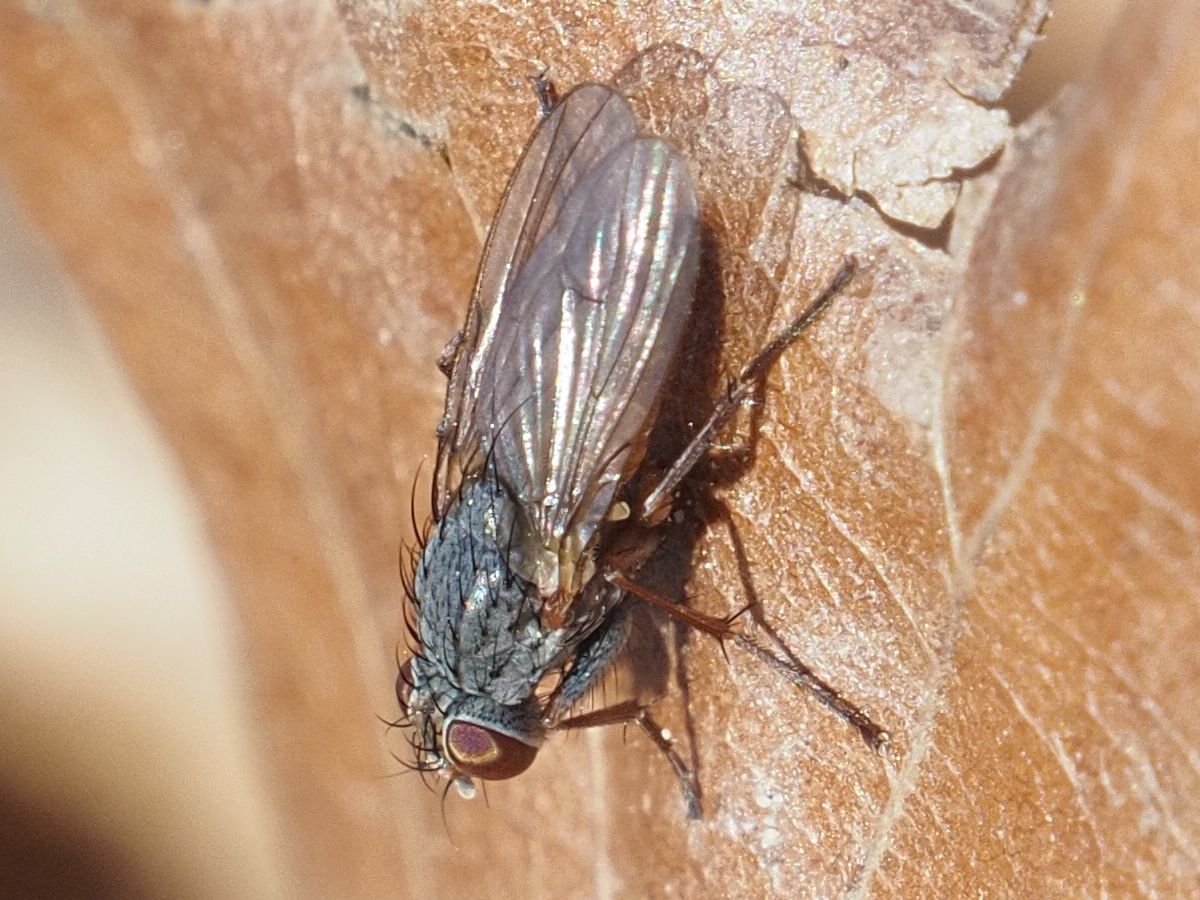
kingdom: Animalia
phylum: Arthropoda
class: Insecta
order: Diptera
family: Muscidae
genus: Lispocephala
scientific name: Lispocephala brachialis
